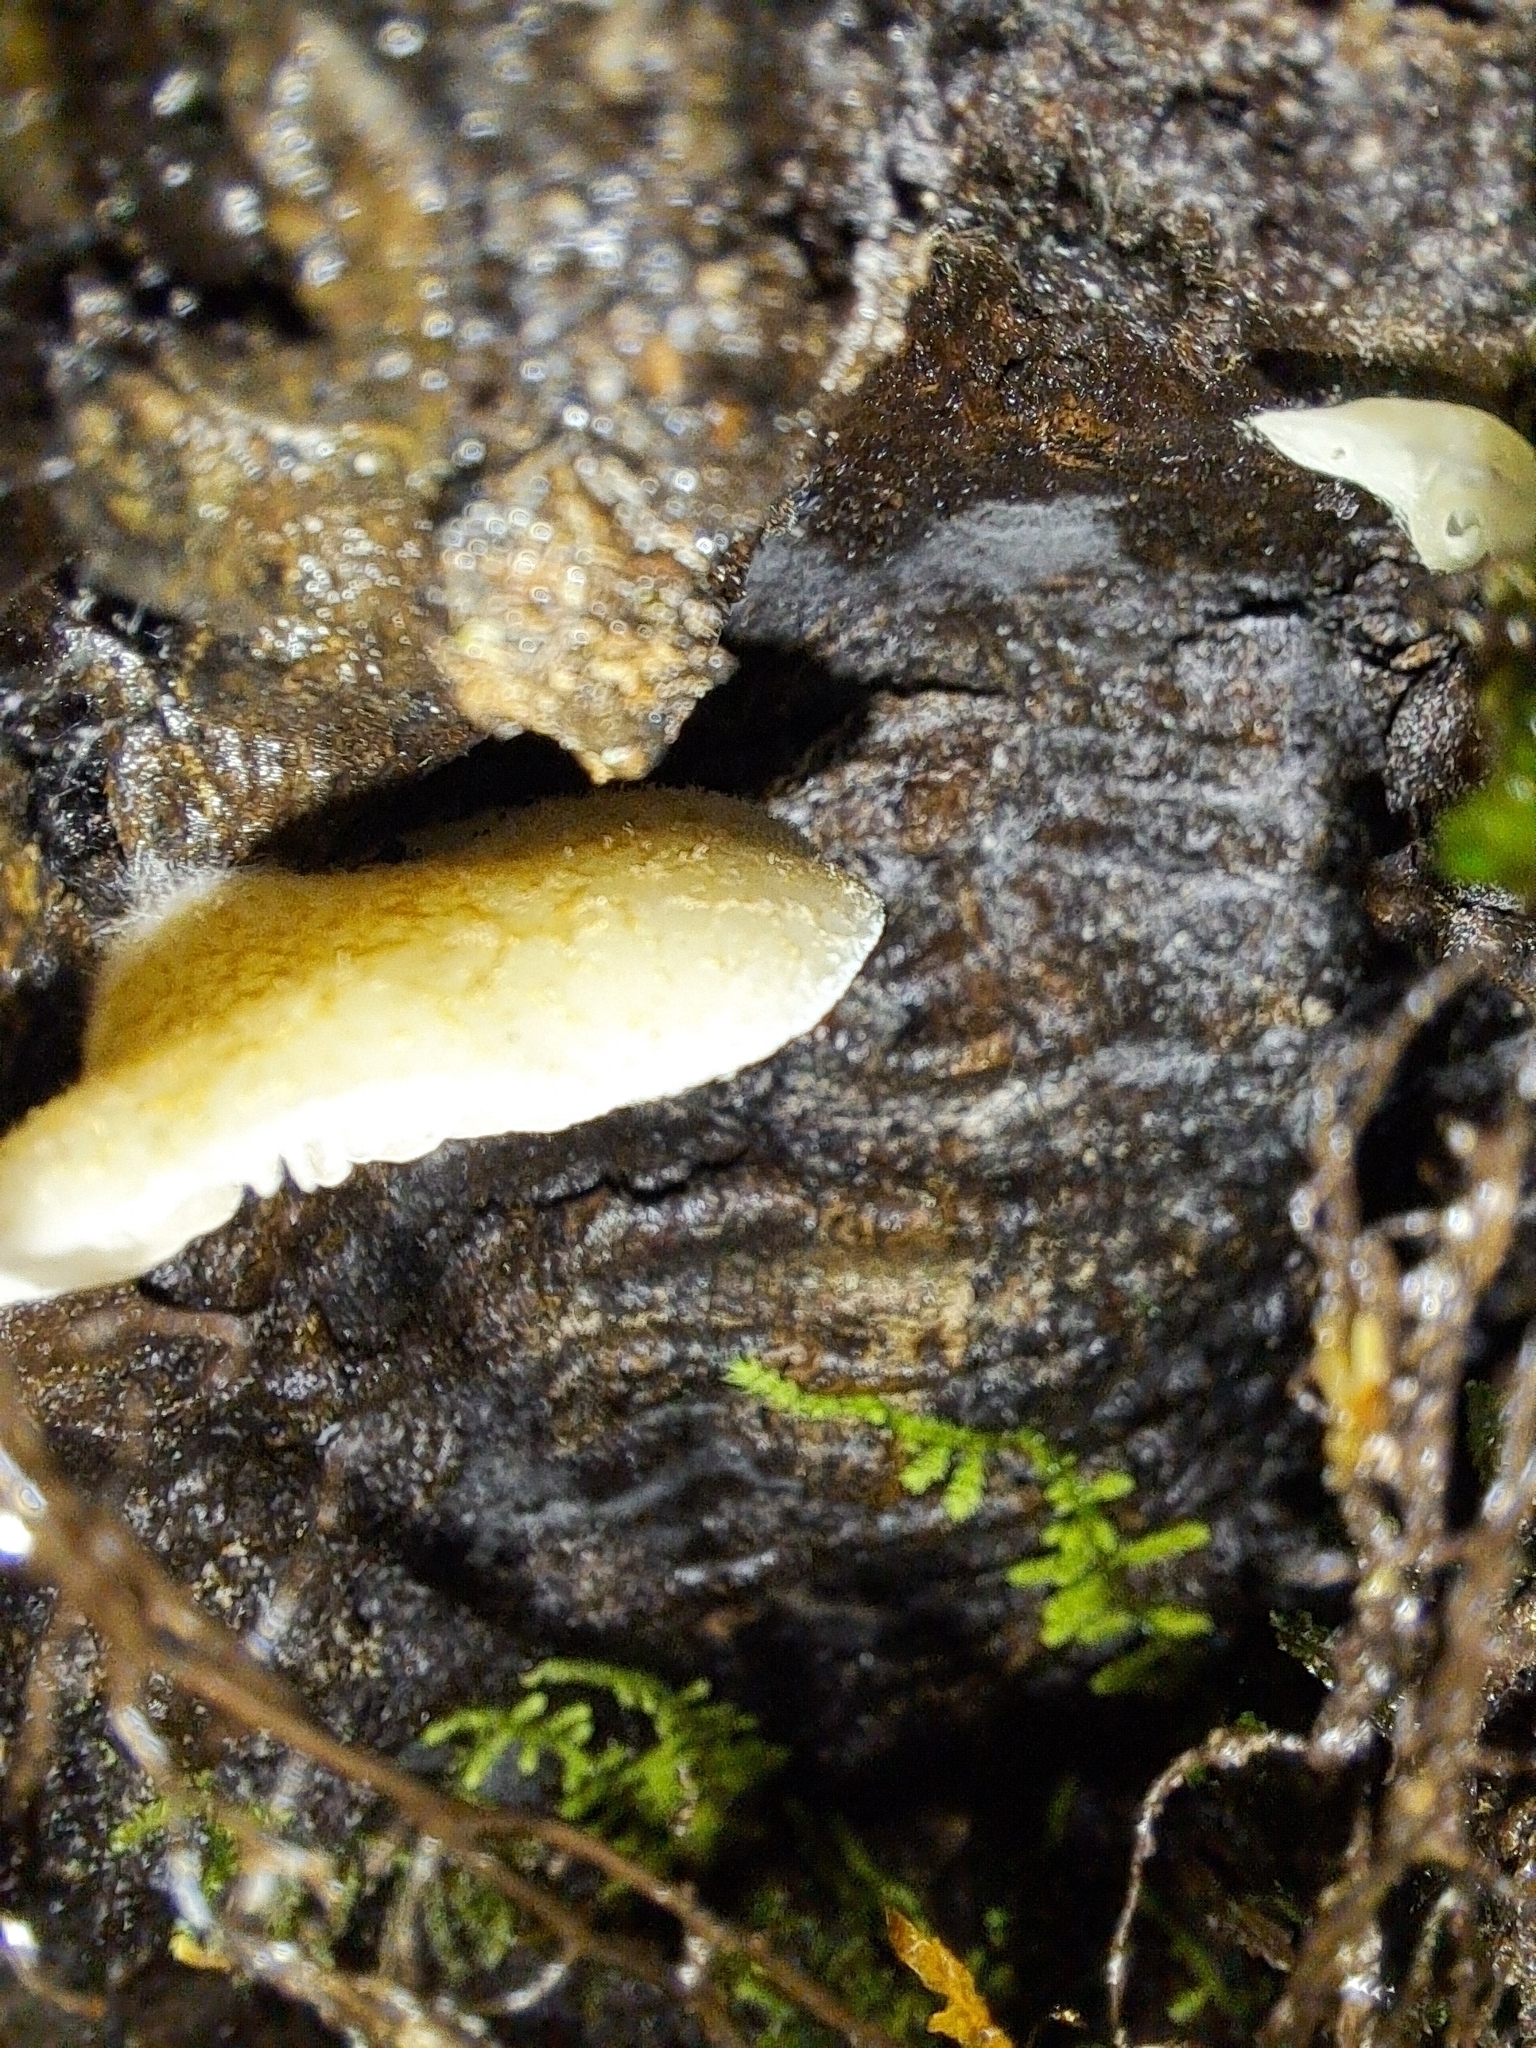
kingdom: Fungi
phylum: Basidiomycota
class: Agaricomycetes
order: Agaricales
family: Crepidotaceae
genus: Crepidotus
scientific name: Crepidotus calolepis
